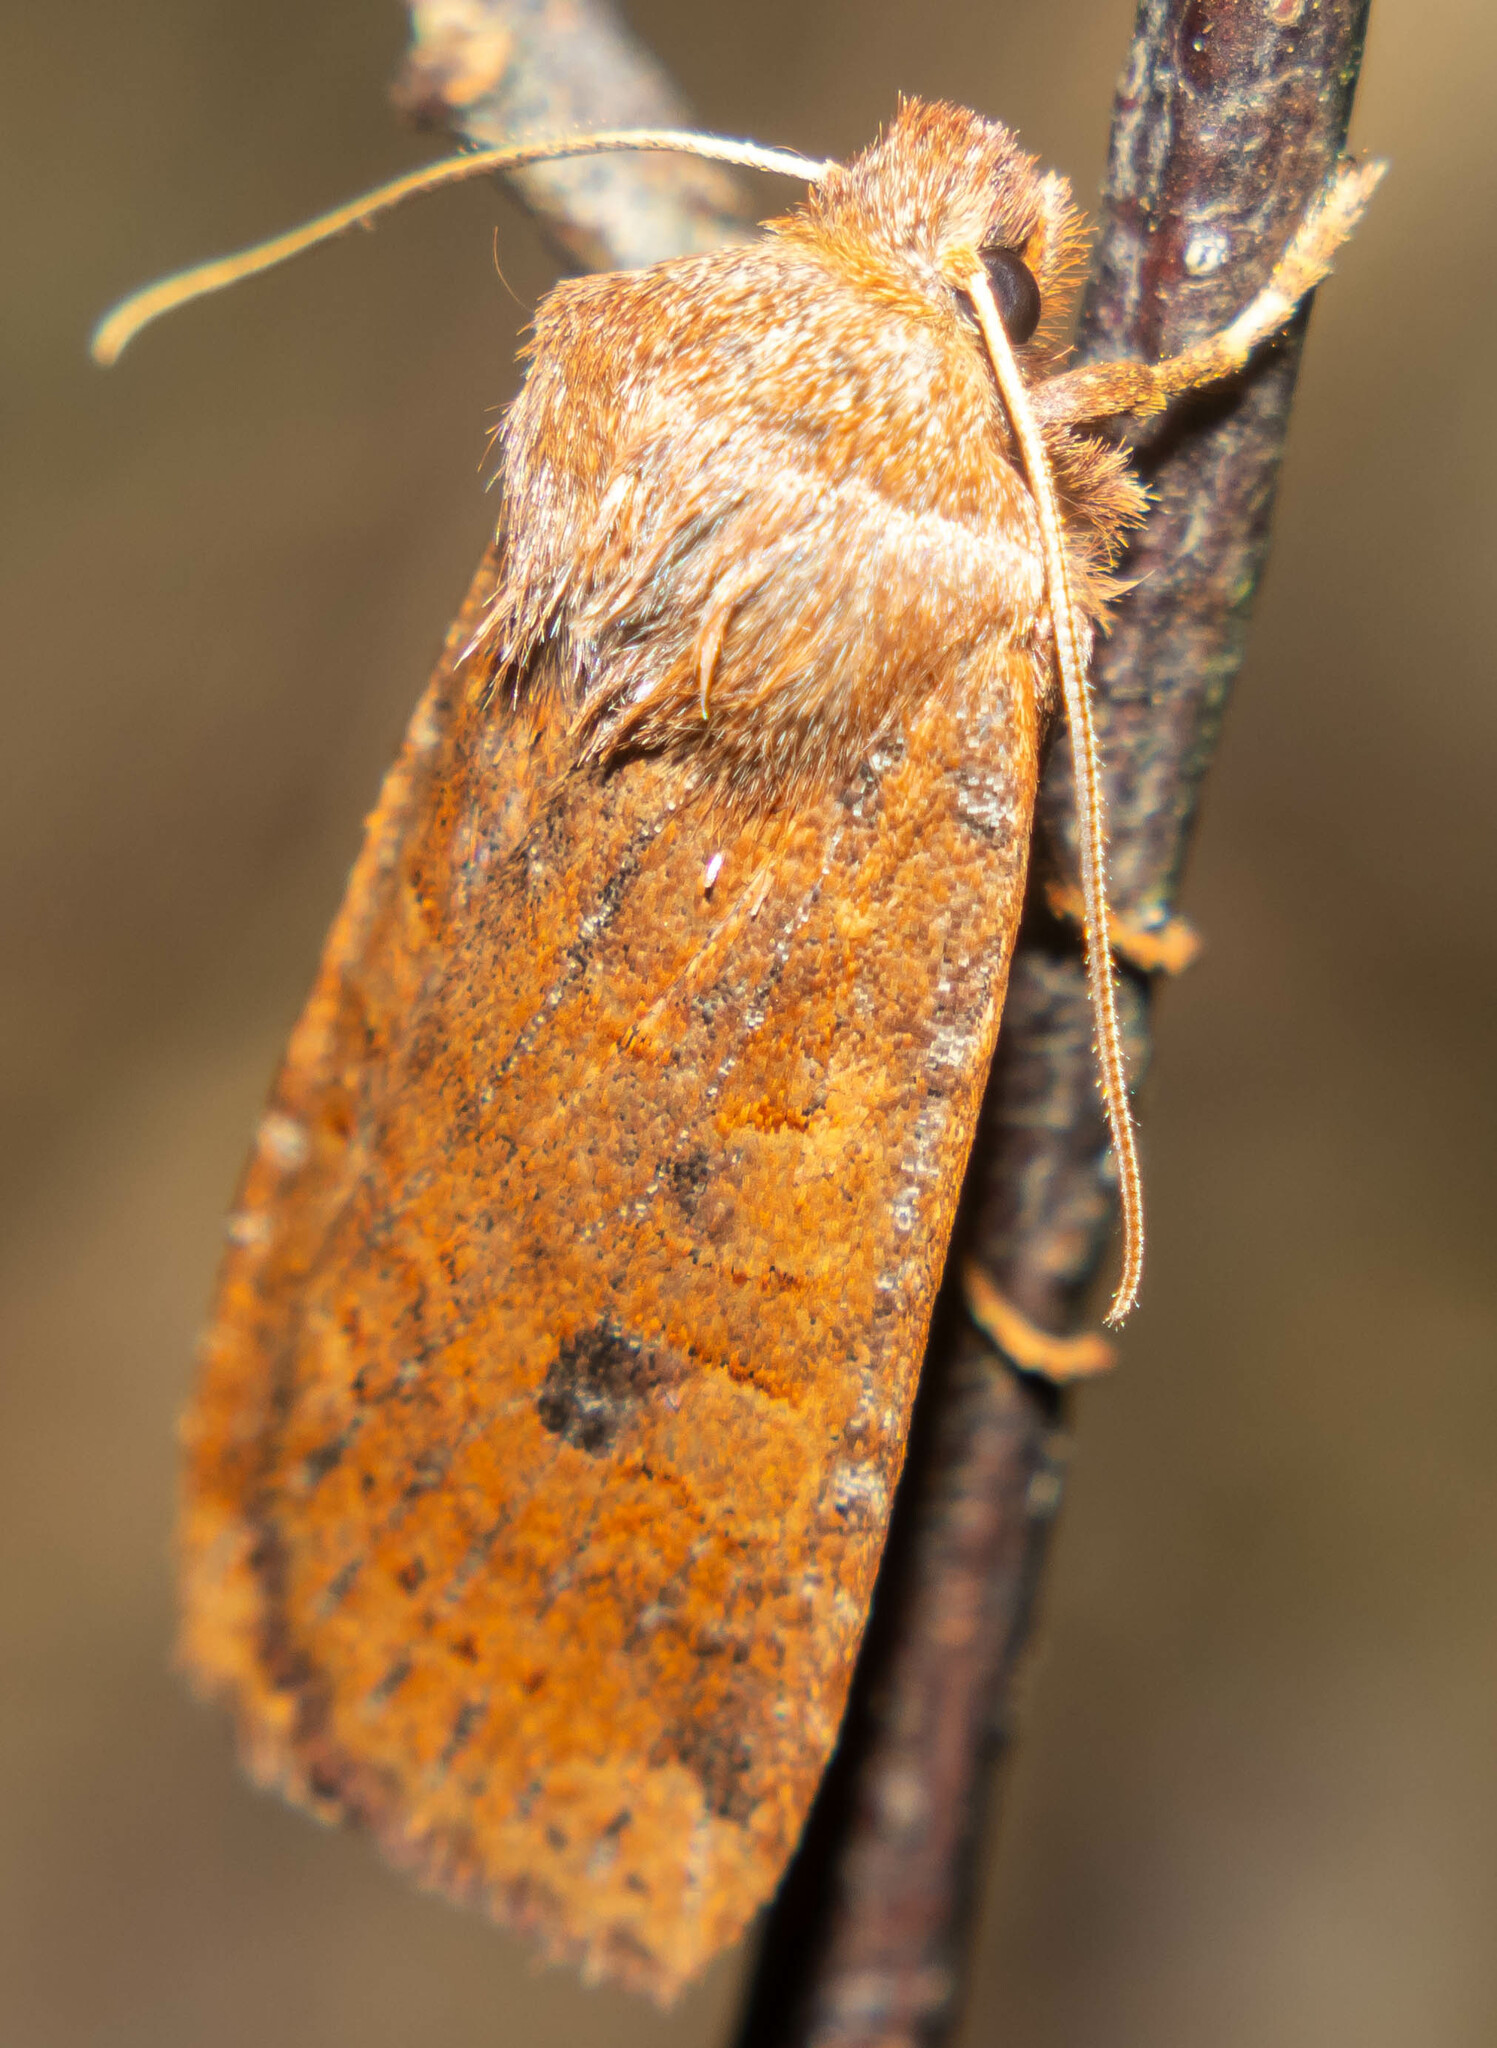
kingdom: Animalia
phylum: Arthropoda
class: Insecta
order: Lepidoptera
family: Noctuidae
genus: Conistra
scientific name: Conistra vaccinii
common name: Chestnut
